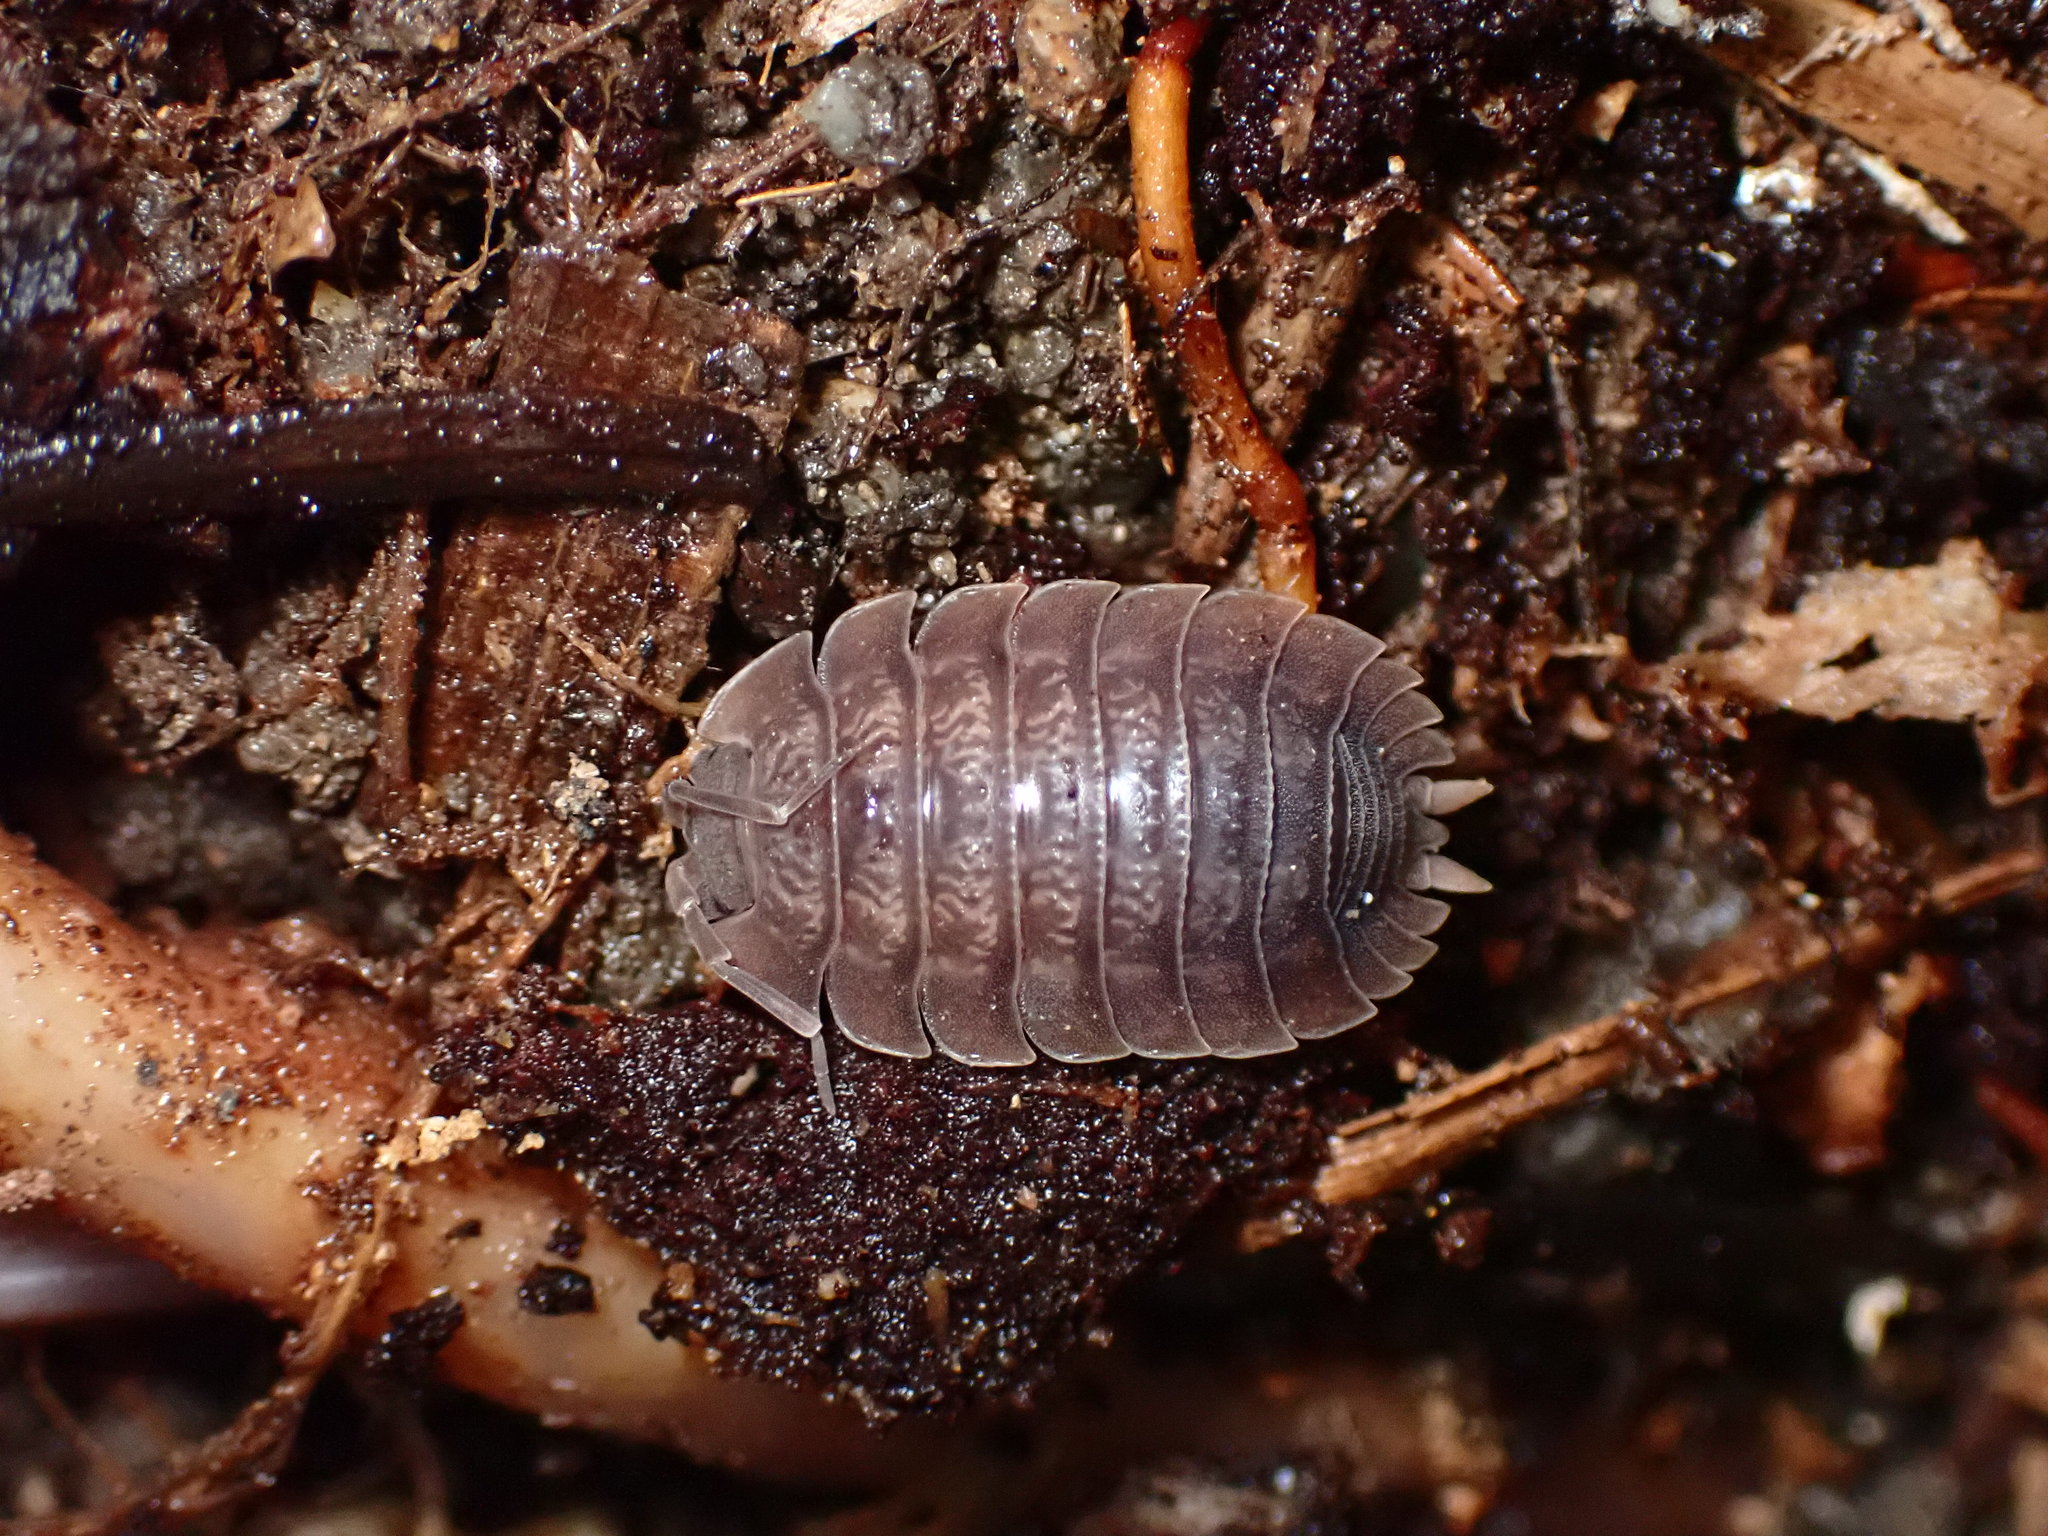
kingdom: Animalia
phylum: Arthropoda
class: Malacostraca
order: Isopoda
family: Porcellionidae
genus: Porcellio
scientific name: Porcellio dilatatus
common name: Isopod
